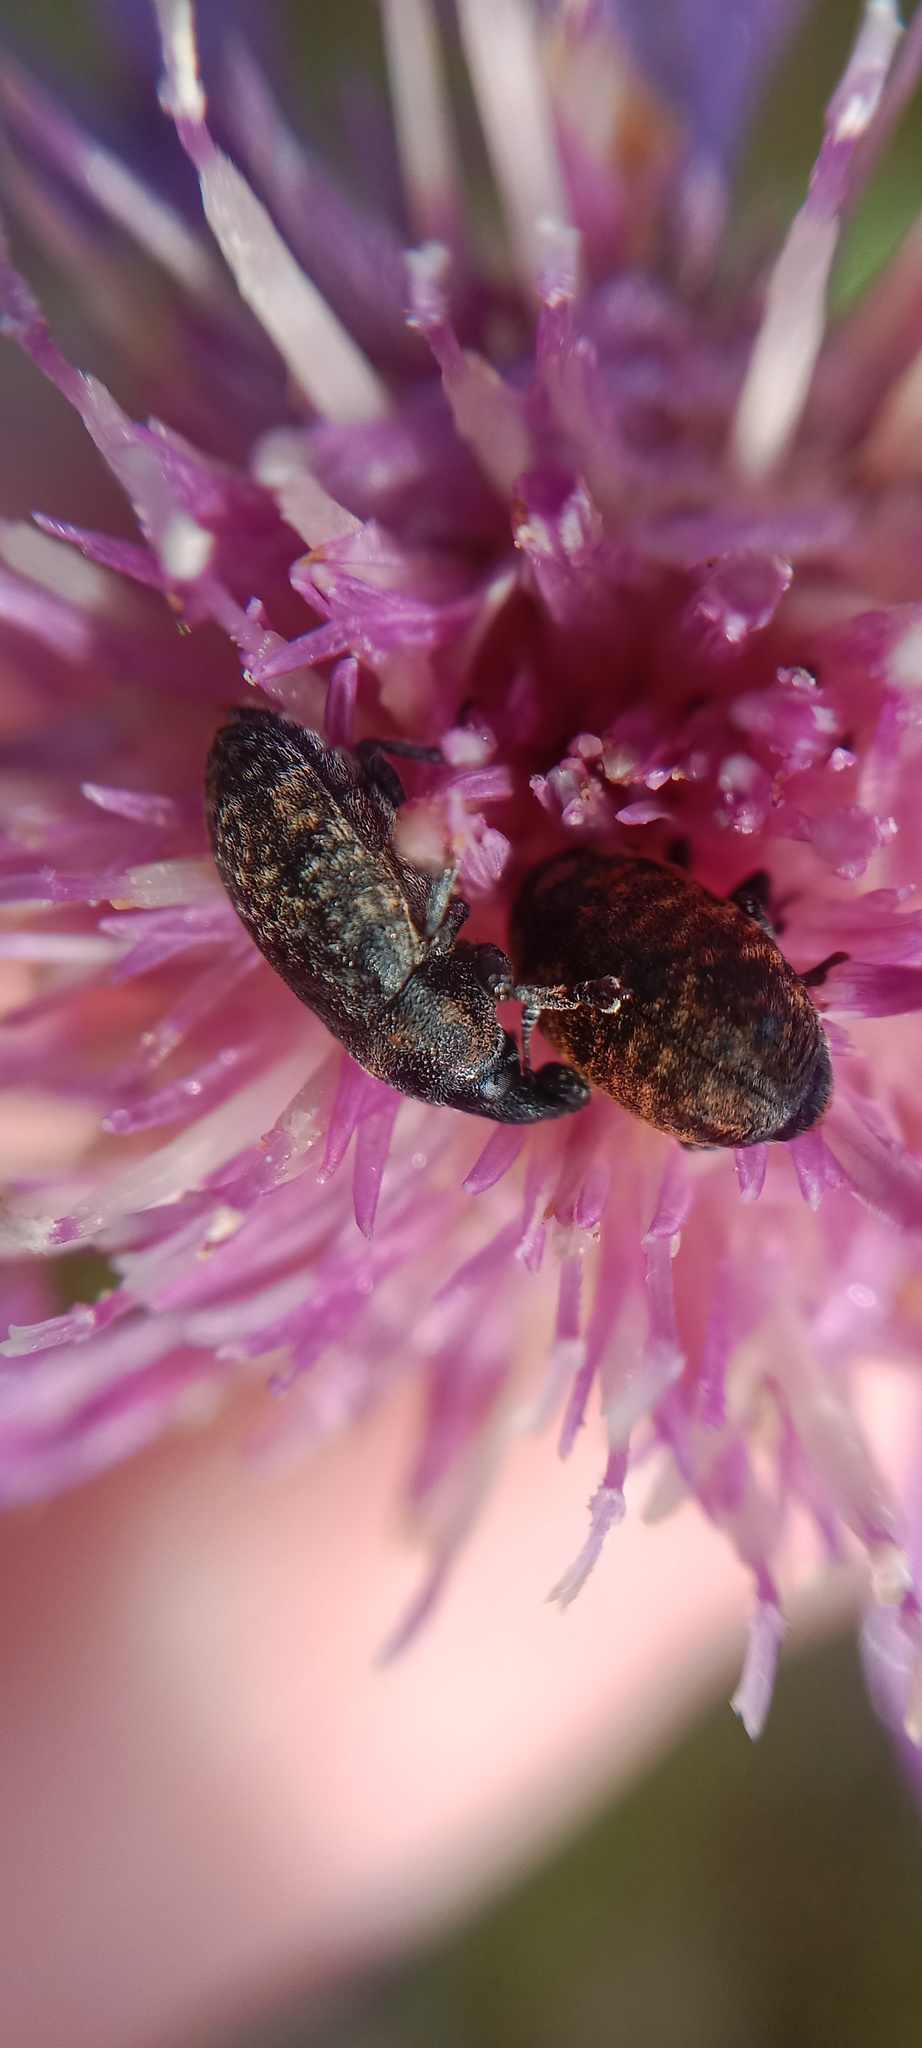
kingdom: Animalia
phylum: Arthropoda
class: Insecta
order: Coleoptera
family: Curculionidae
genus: Larinus
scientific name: Larinus carlinae
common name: Weevil
